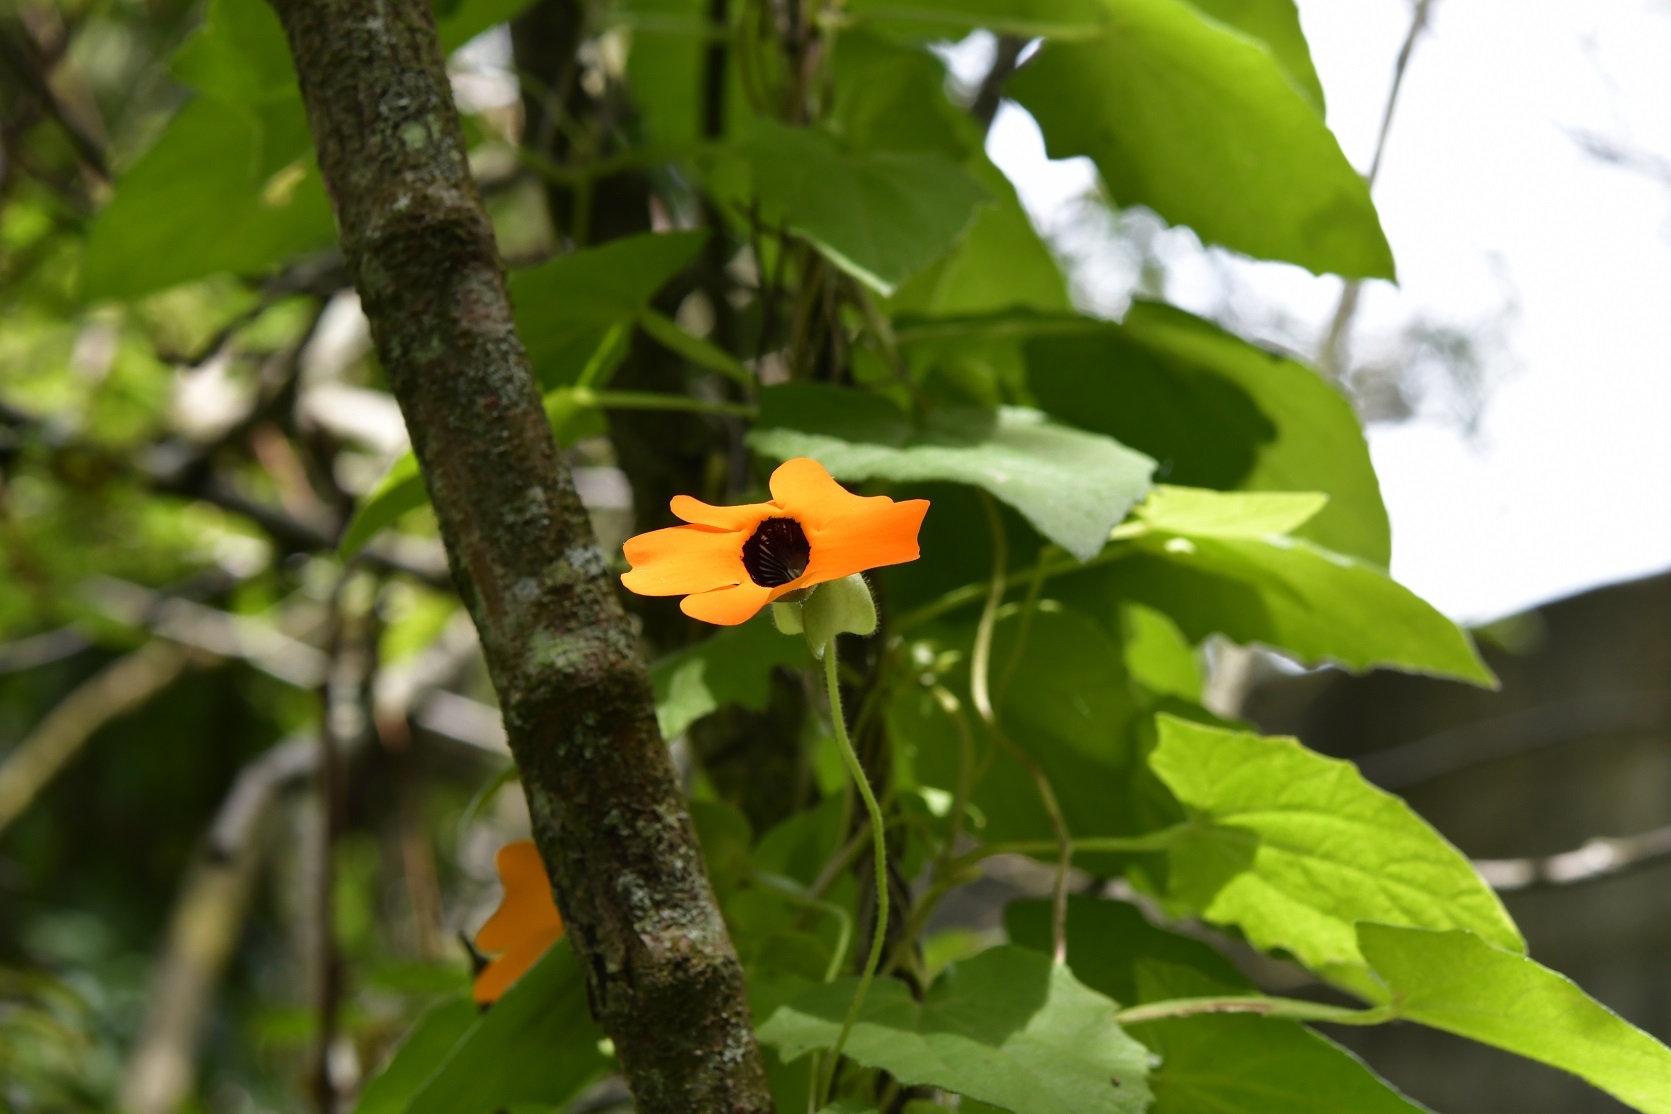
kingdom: Plantae
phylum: Tracheophyta
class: Magnoliopsida
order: Lamiales
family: Acanthaceae
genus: Thunbergia
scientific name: Thunbergia alata
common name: Blackeyed susan vine
